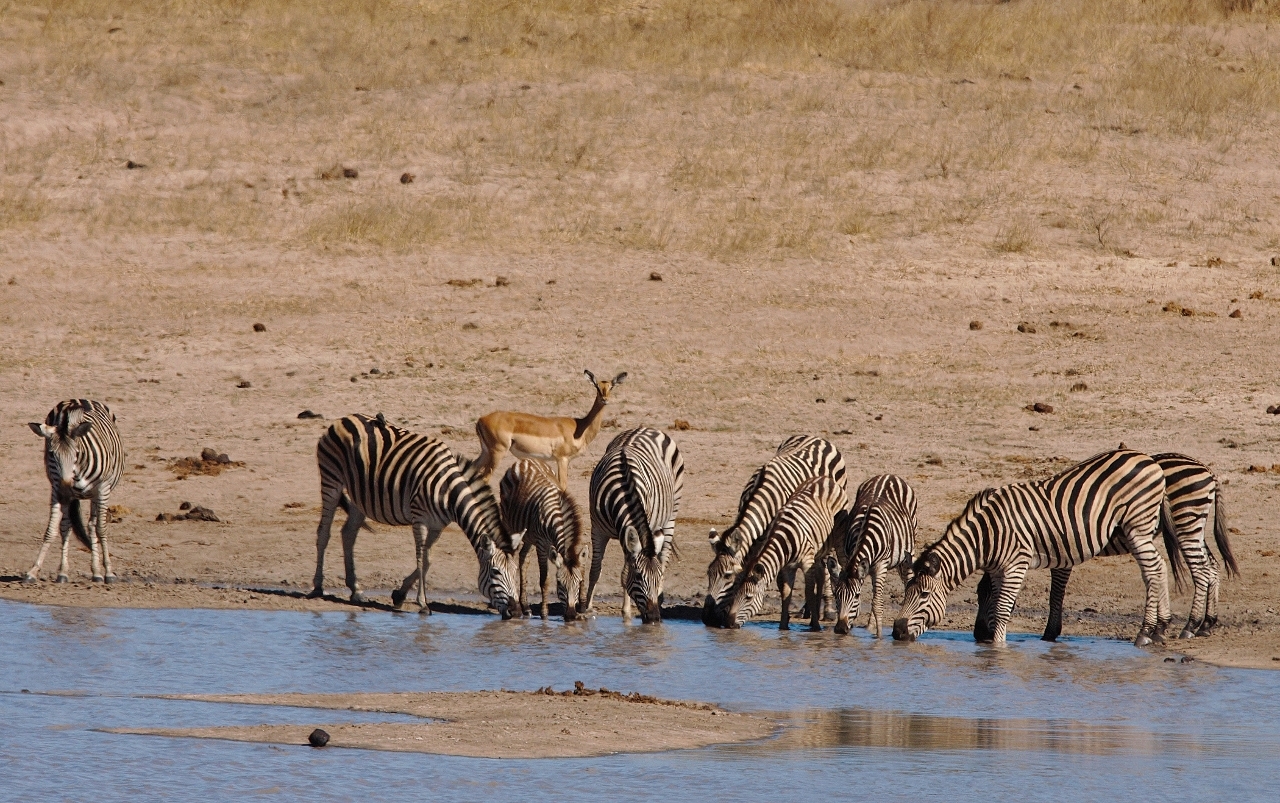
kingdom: Animalia
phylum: Chordata
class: Mammalia
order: Perissodactyla
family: Equidae
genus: Equus
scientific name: Equus quagga
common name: Plains zebra
